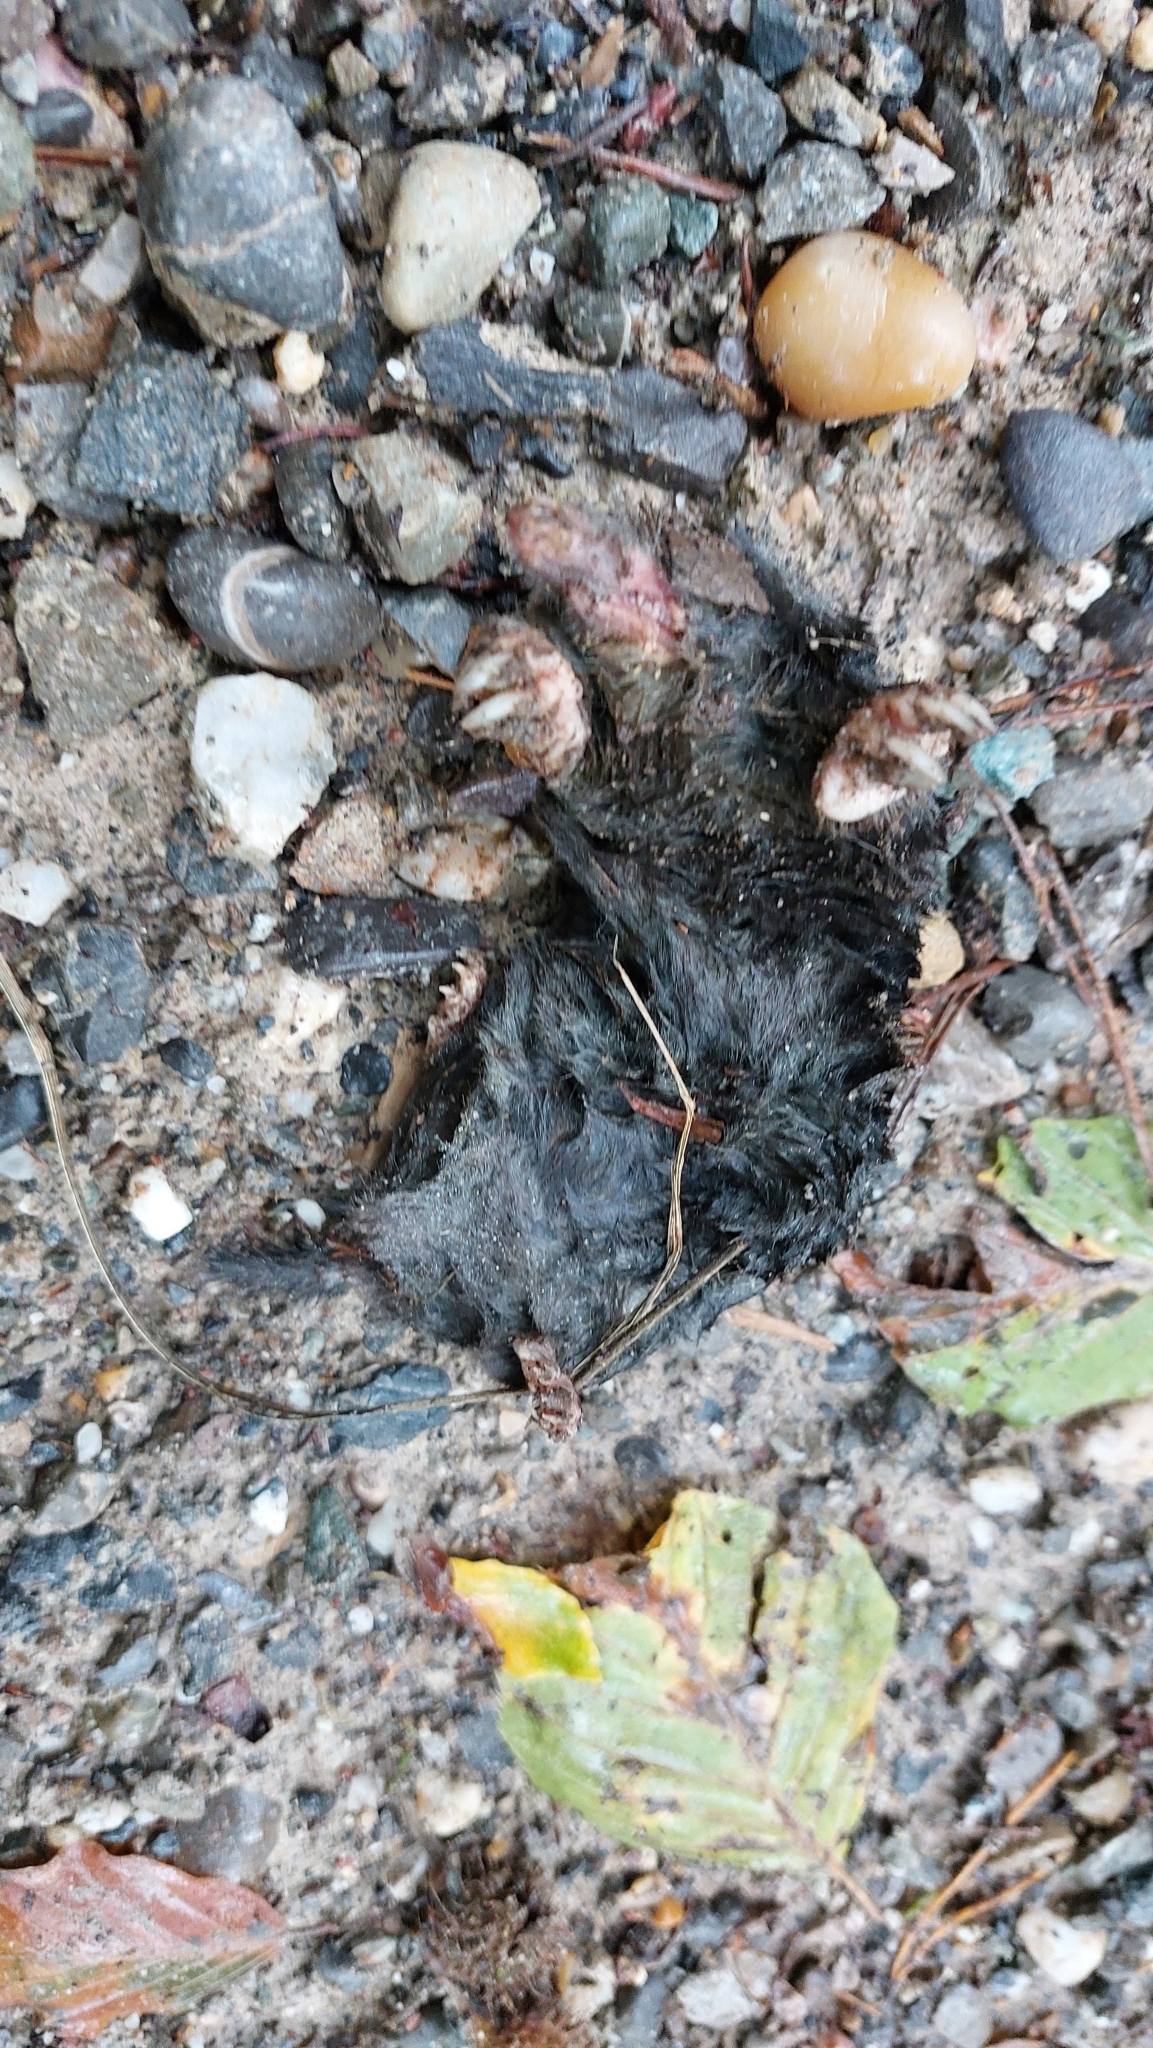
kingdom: Animalia
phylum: Chordata
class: Mammalia
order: Soricomorpha
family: Talpidae
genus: Talpa
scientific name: Talpa europaea
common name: European mole
